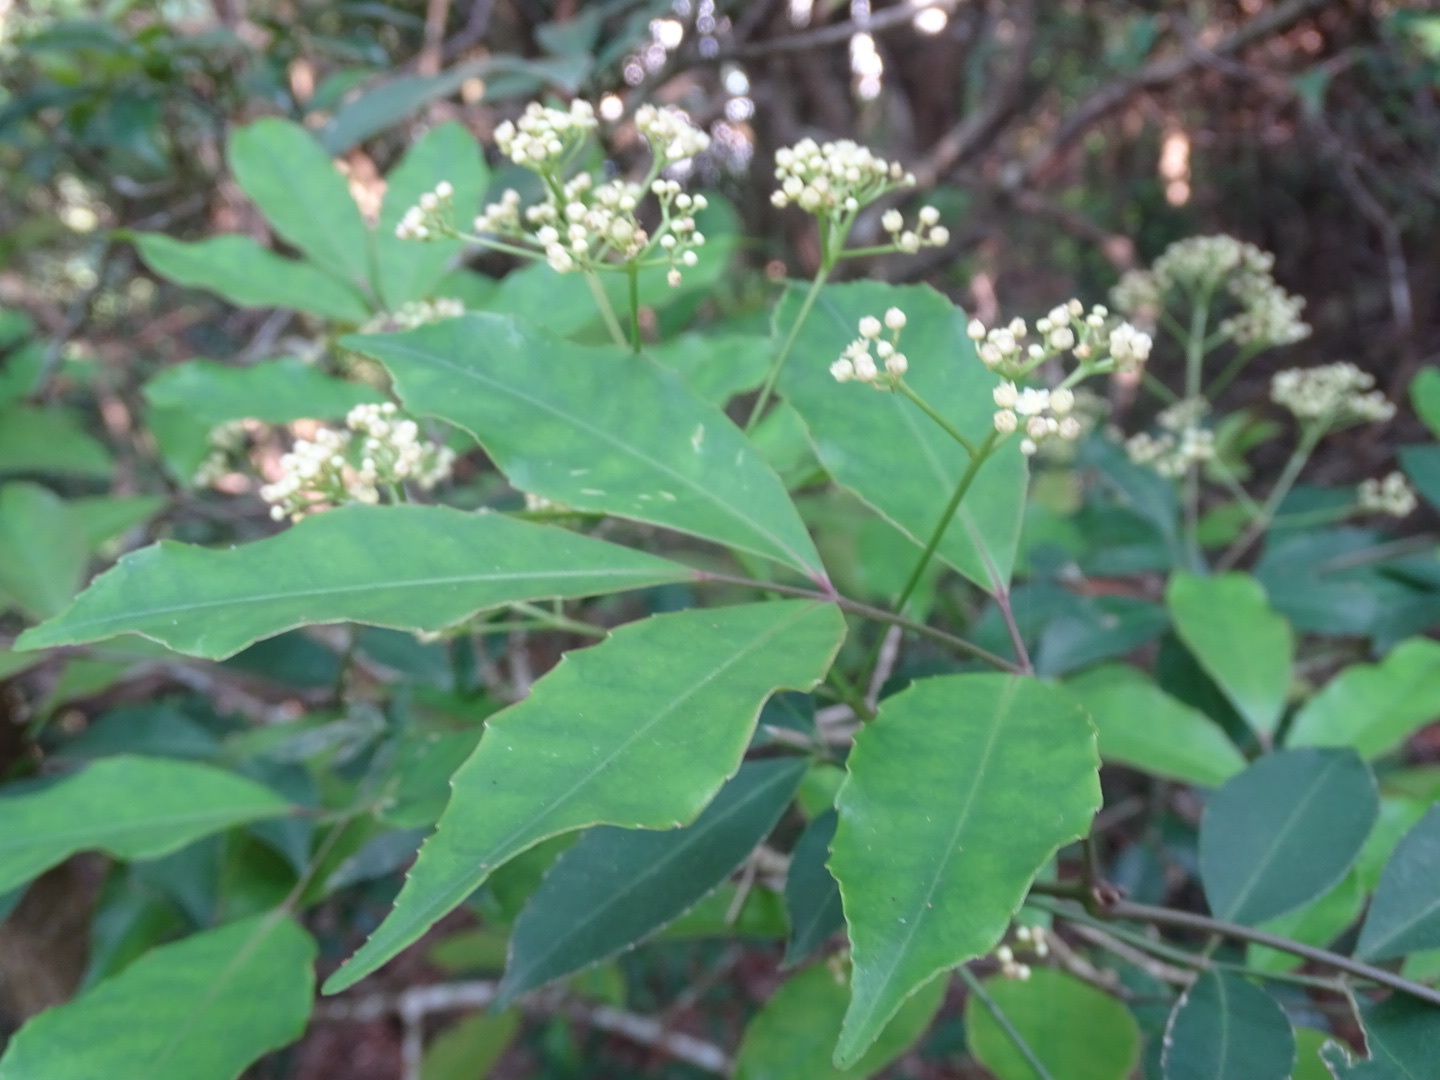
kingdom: Plantae
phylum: Tracheophyta
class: Magnoliopsida
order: Crossosomatales
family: Staphyleaceae
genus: Turpinia
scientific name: Turpinia montana
